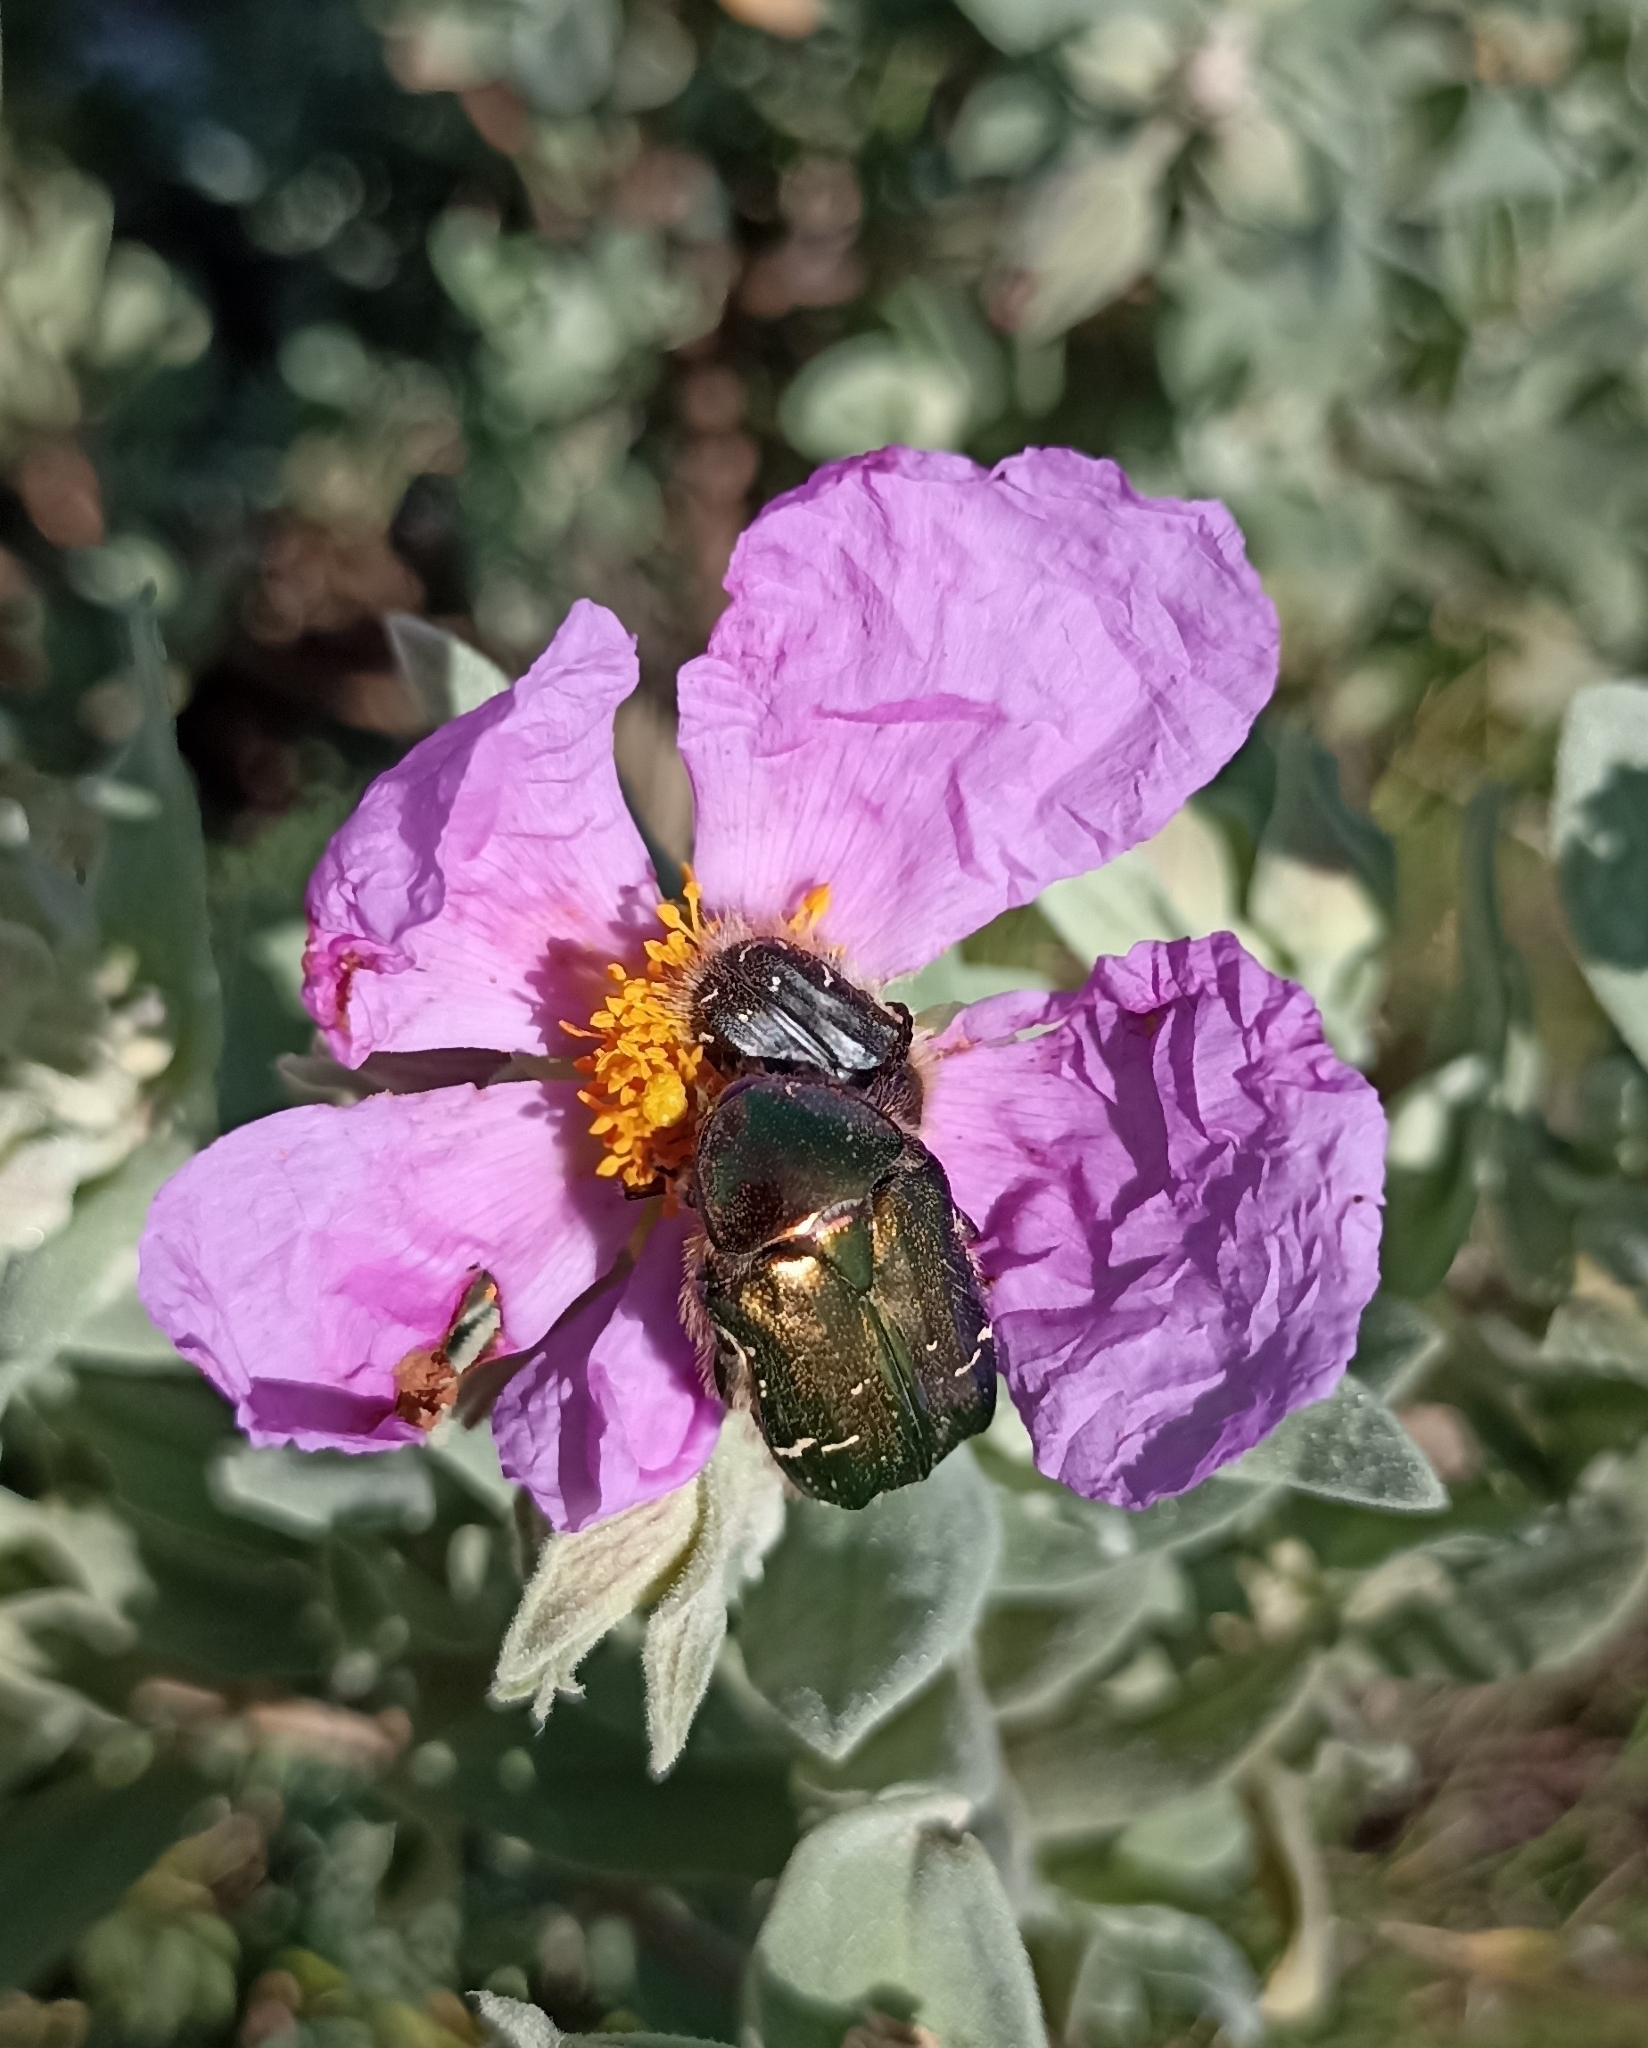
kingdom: Animalia
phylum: Arthropoda
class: Insecta
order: Coleoptera
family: Scarabaeidae
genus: Cetonia
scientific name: Cetonia aurata
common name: Rose chafer
